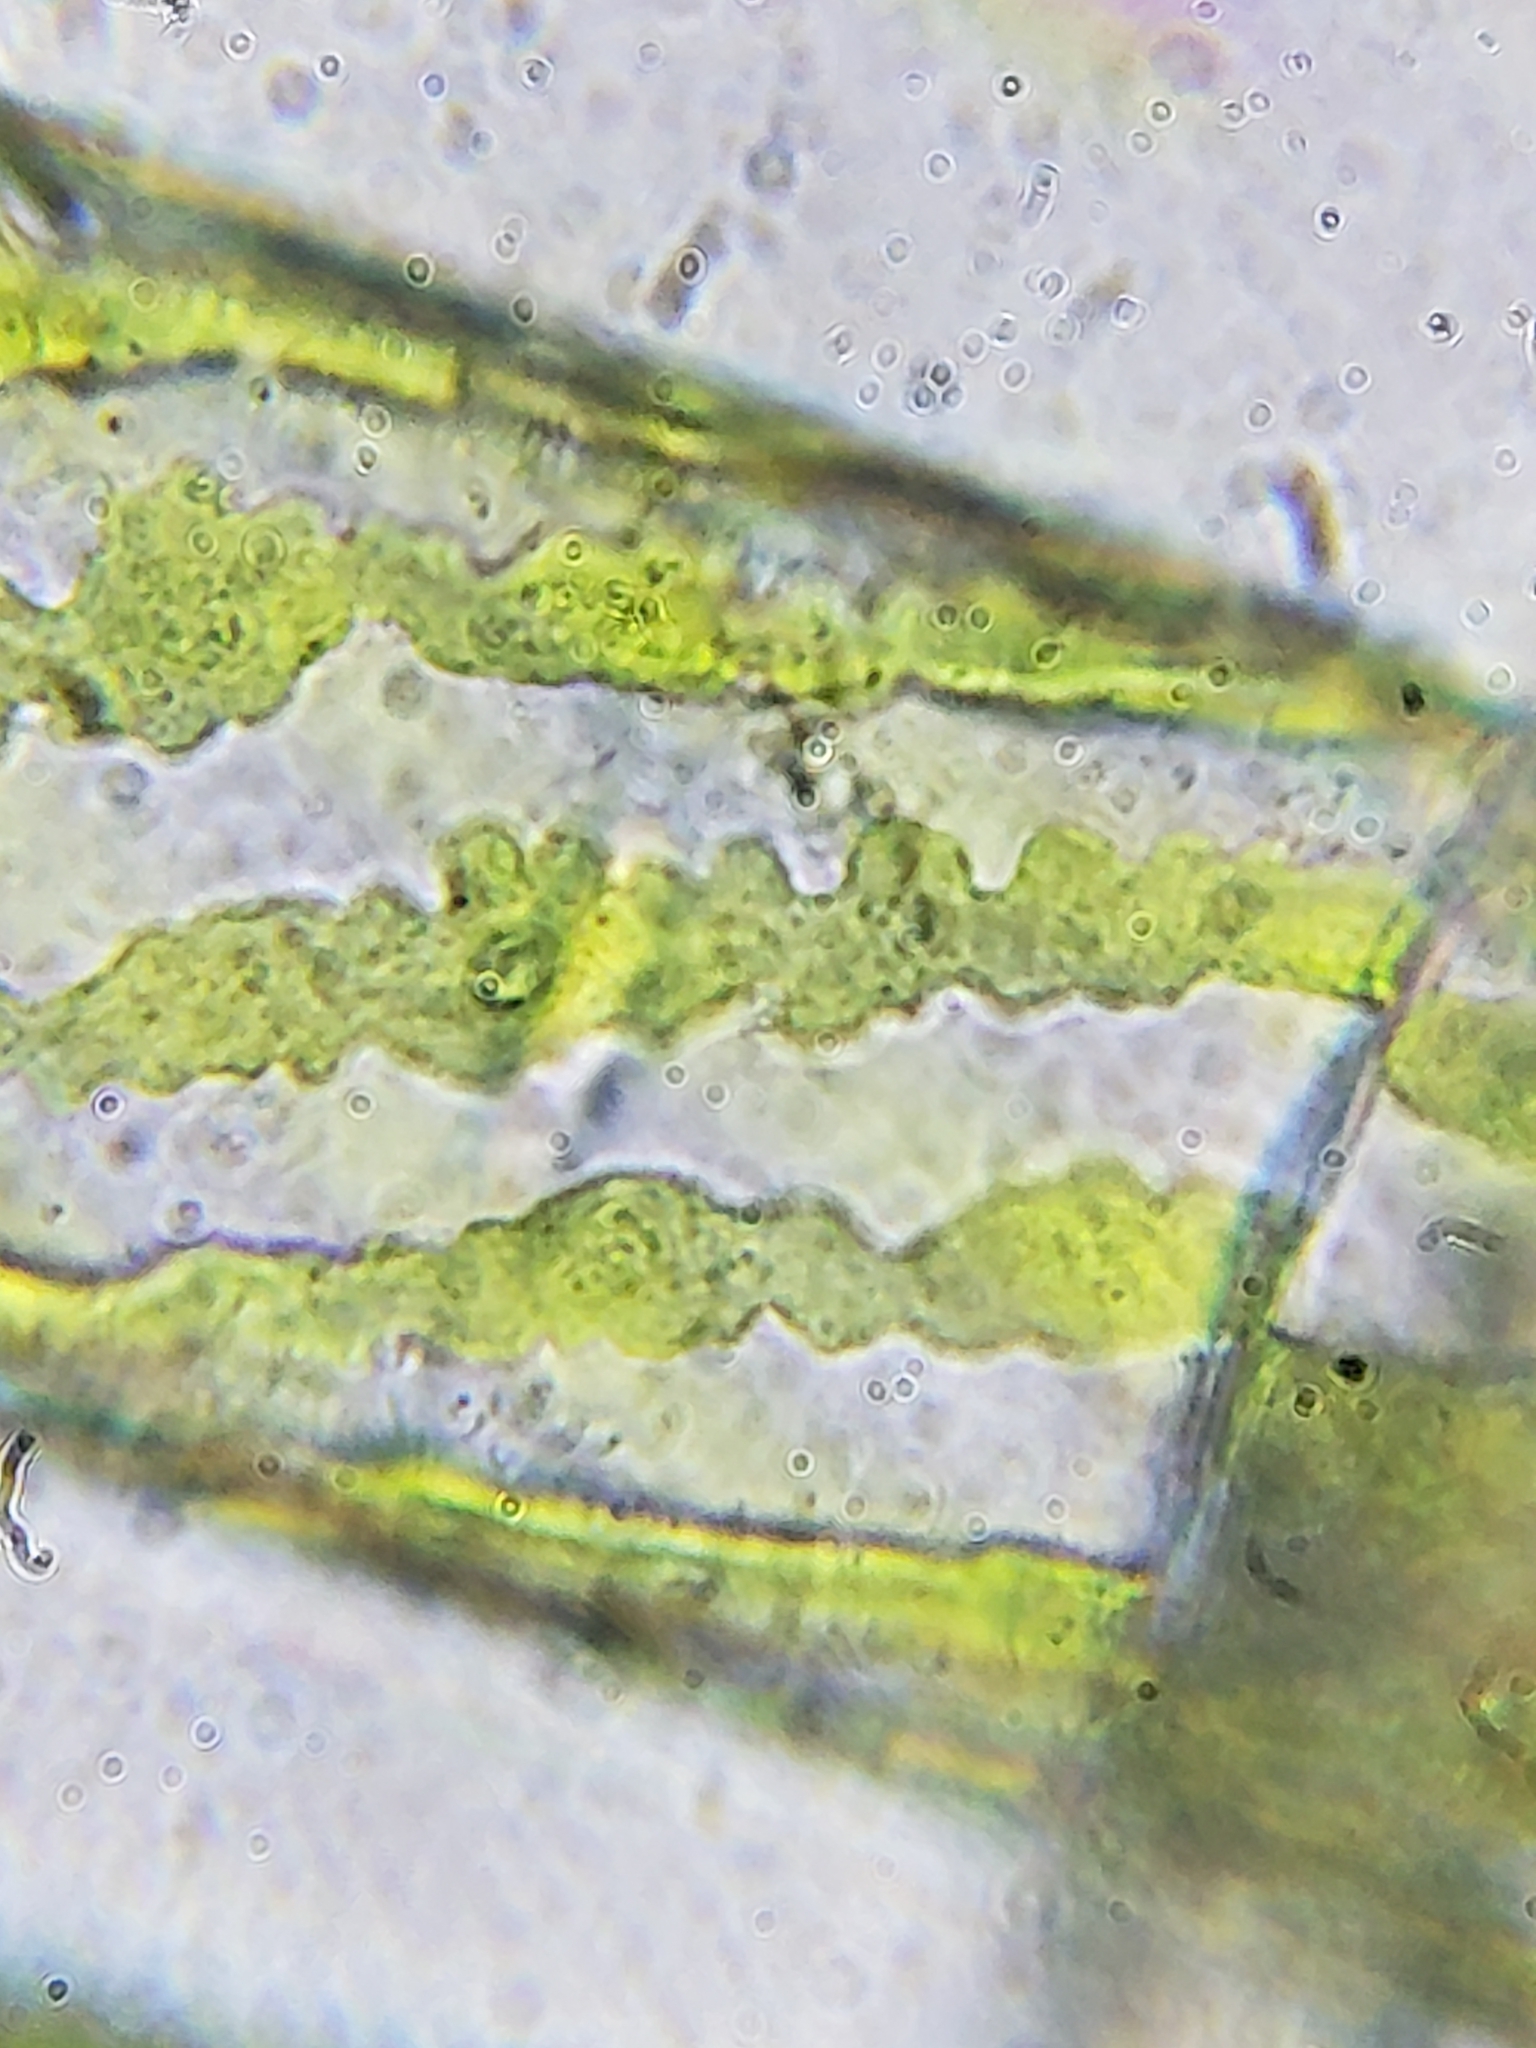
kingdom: Plantae
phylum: Charophyta
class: Zygnematophyceae
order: Zygnematales
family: Zygnemataceae
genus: Spirogyra
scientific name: Spirogyra
